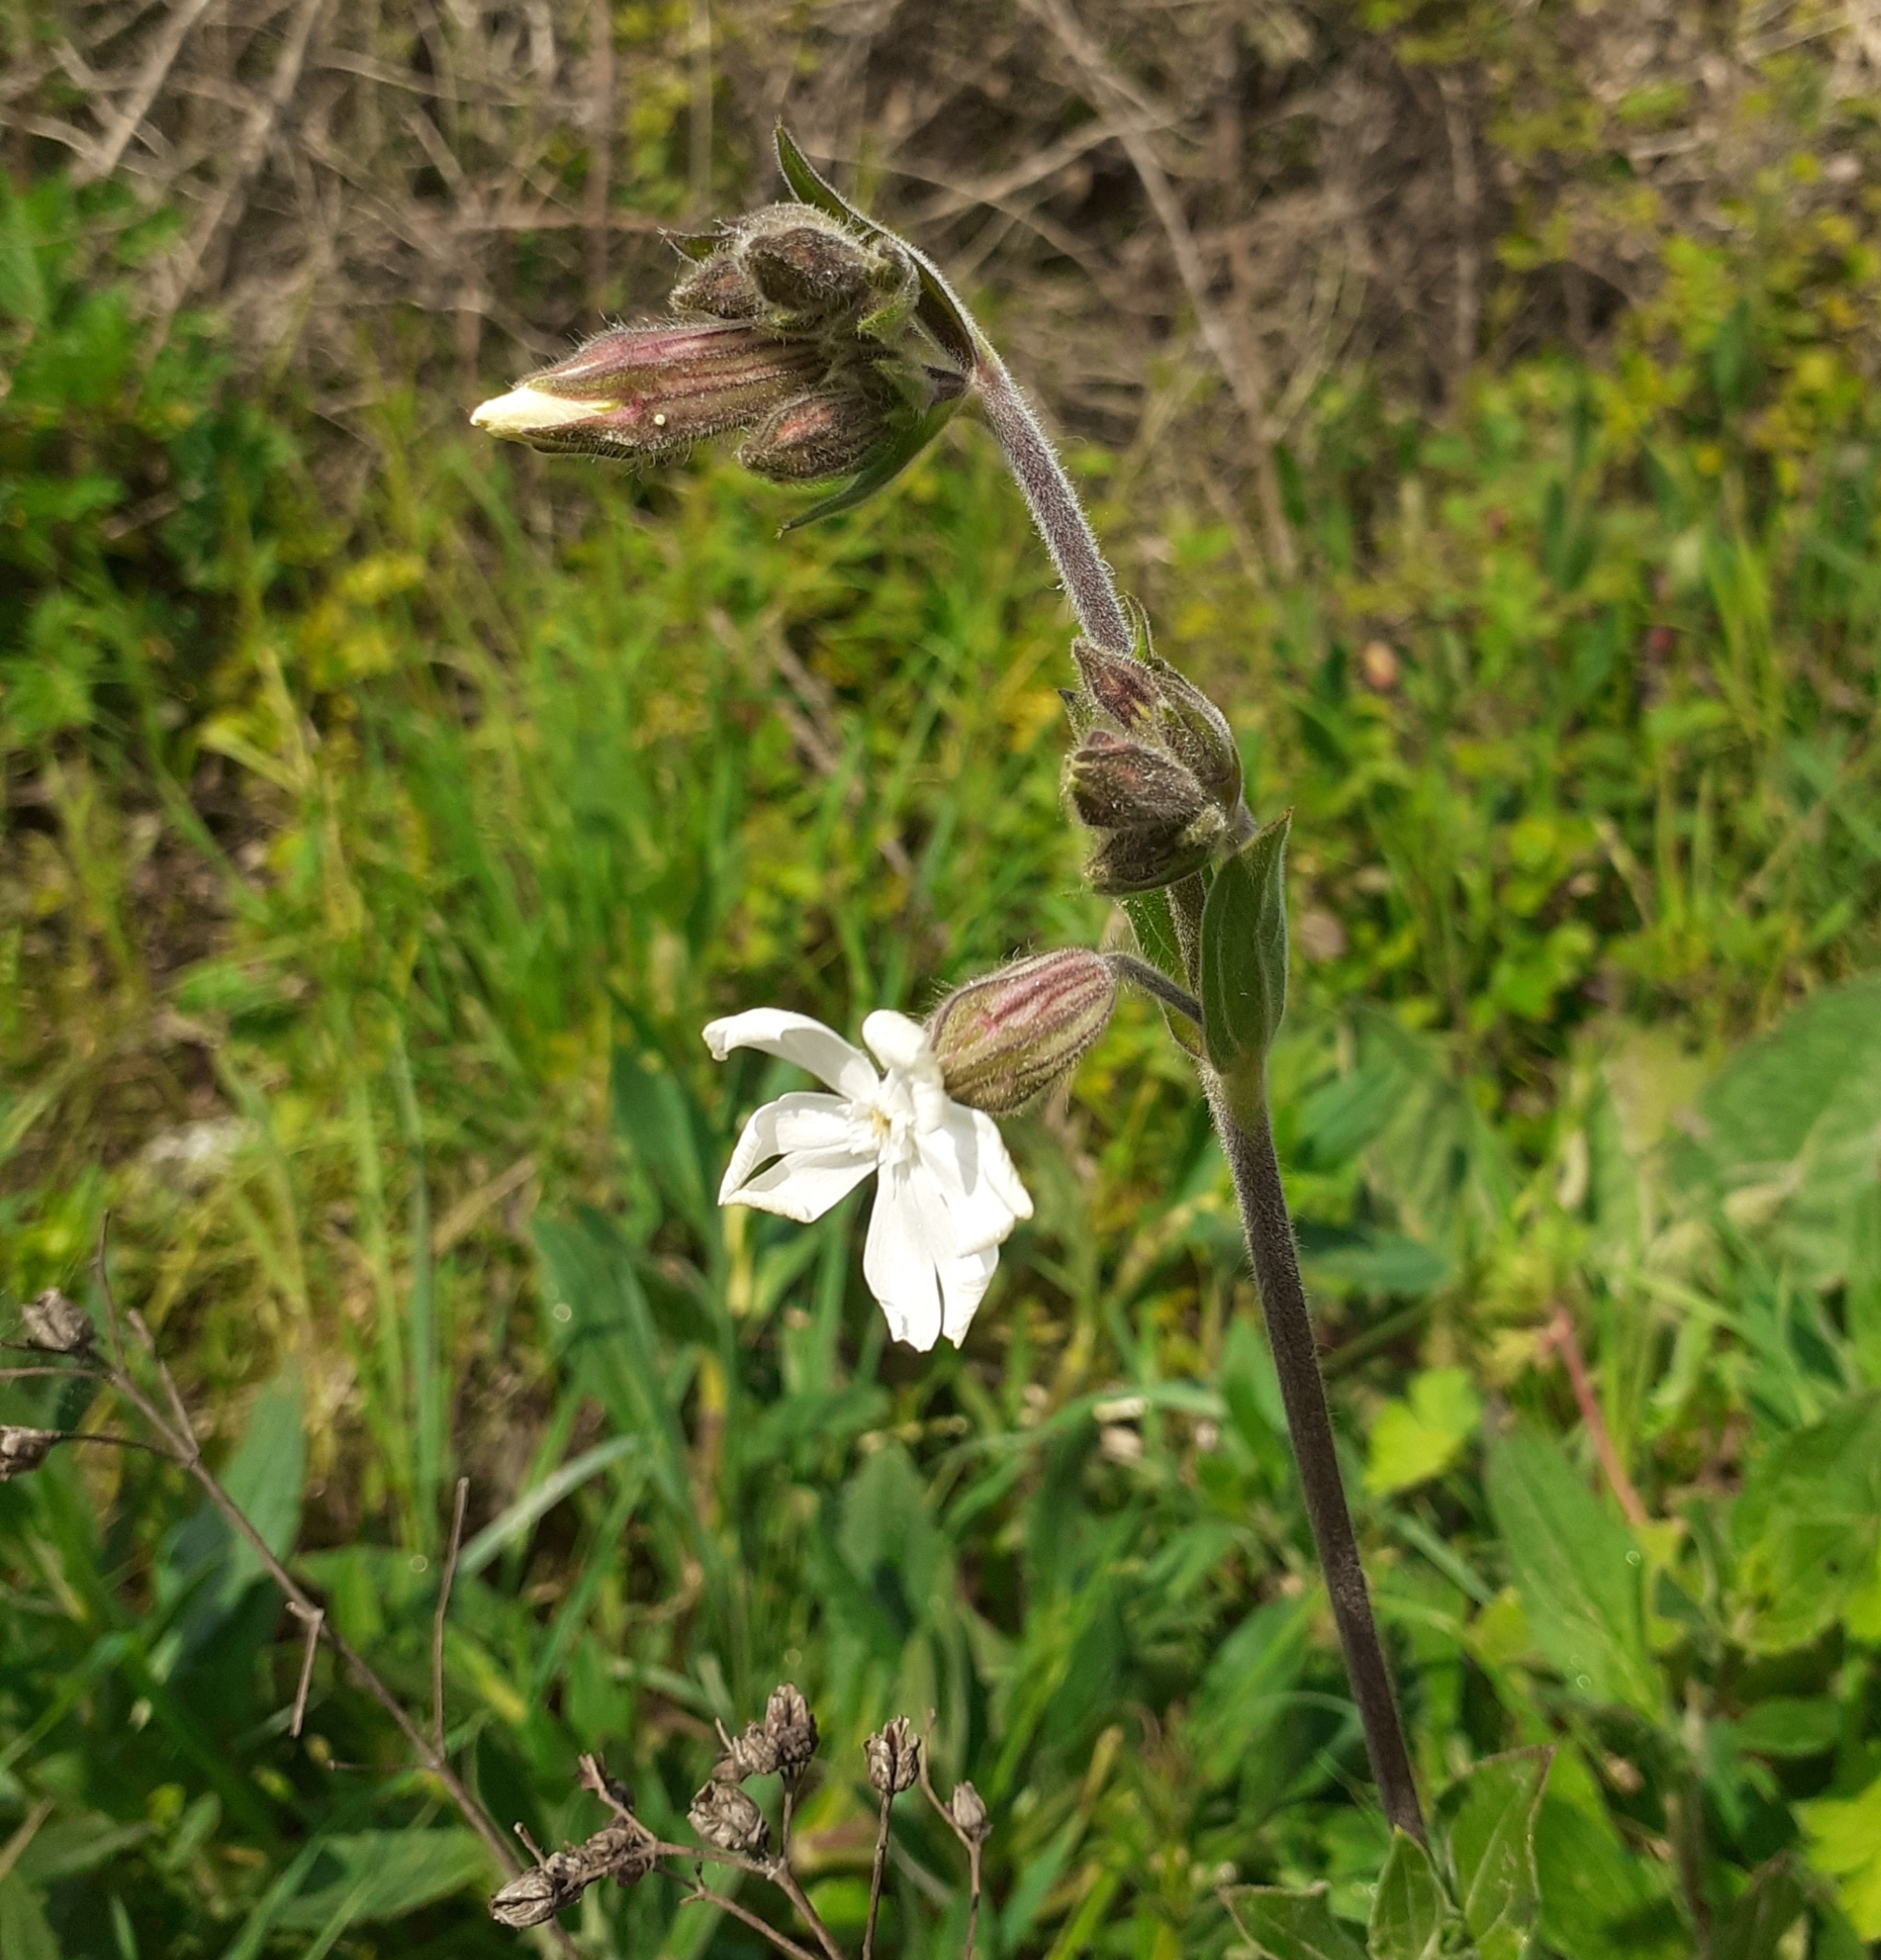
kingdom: Plantae
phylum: Tracheophyta
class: Magnoliopsida
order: Caryophyllales
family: Caryophyllaceae
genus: Silene
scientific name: Silene latifolia
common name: White campion
